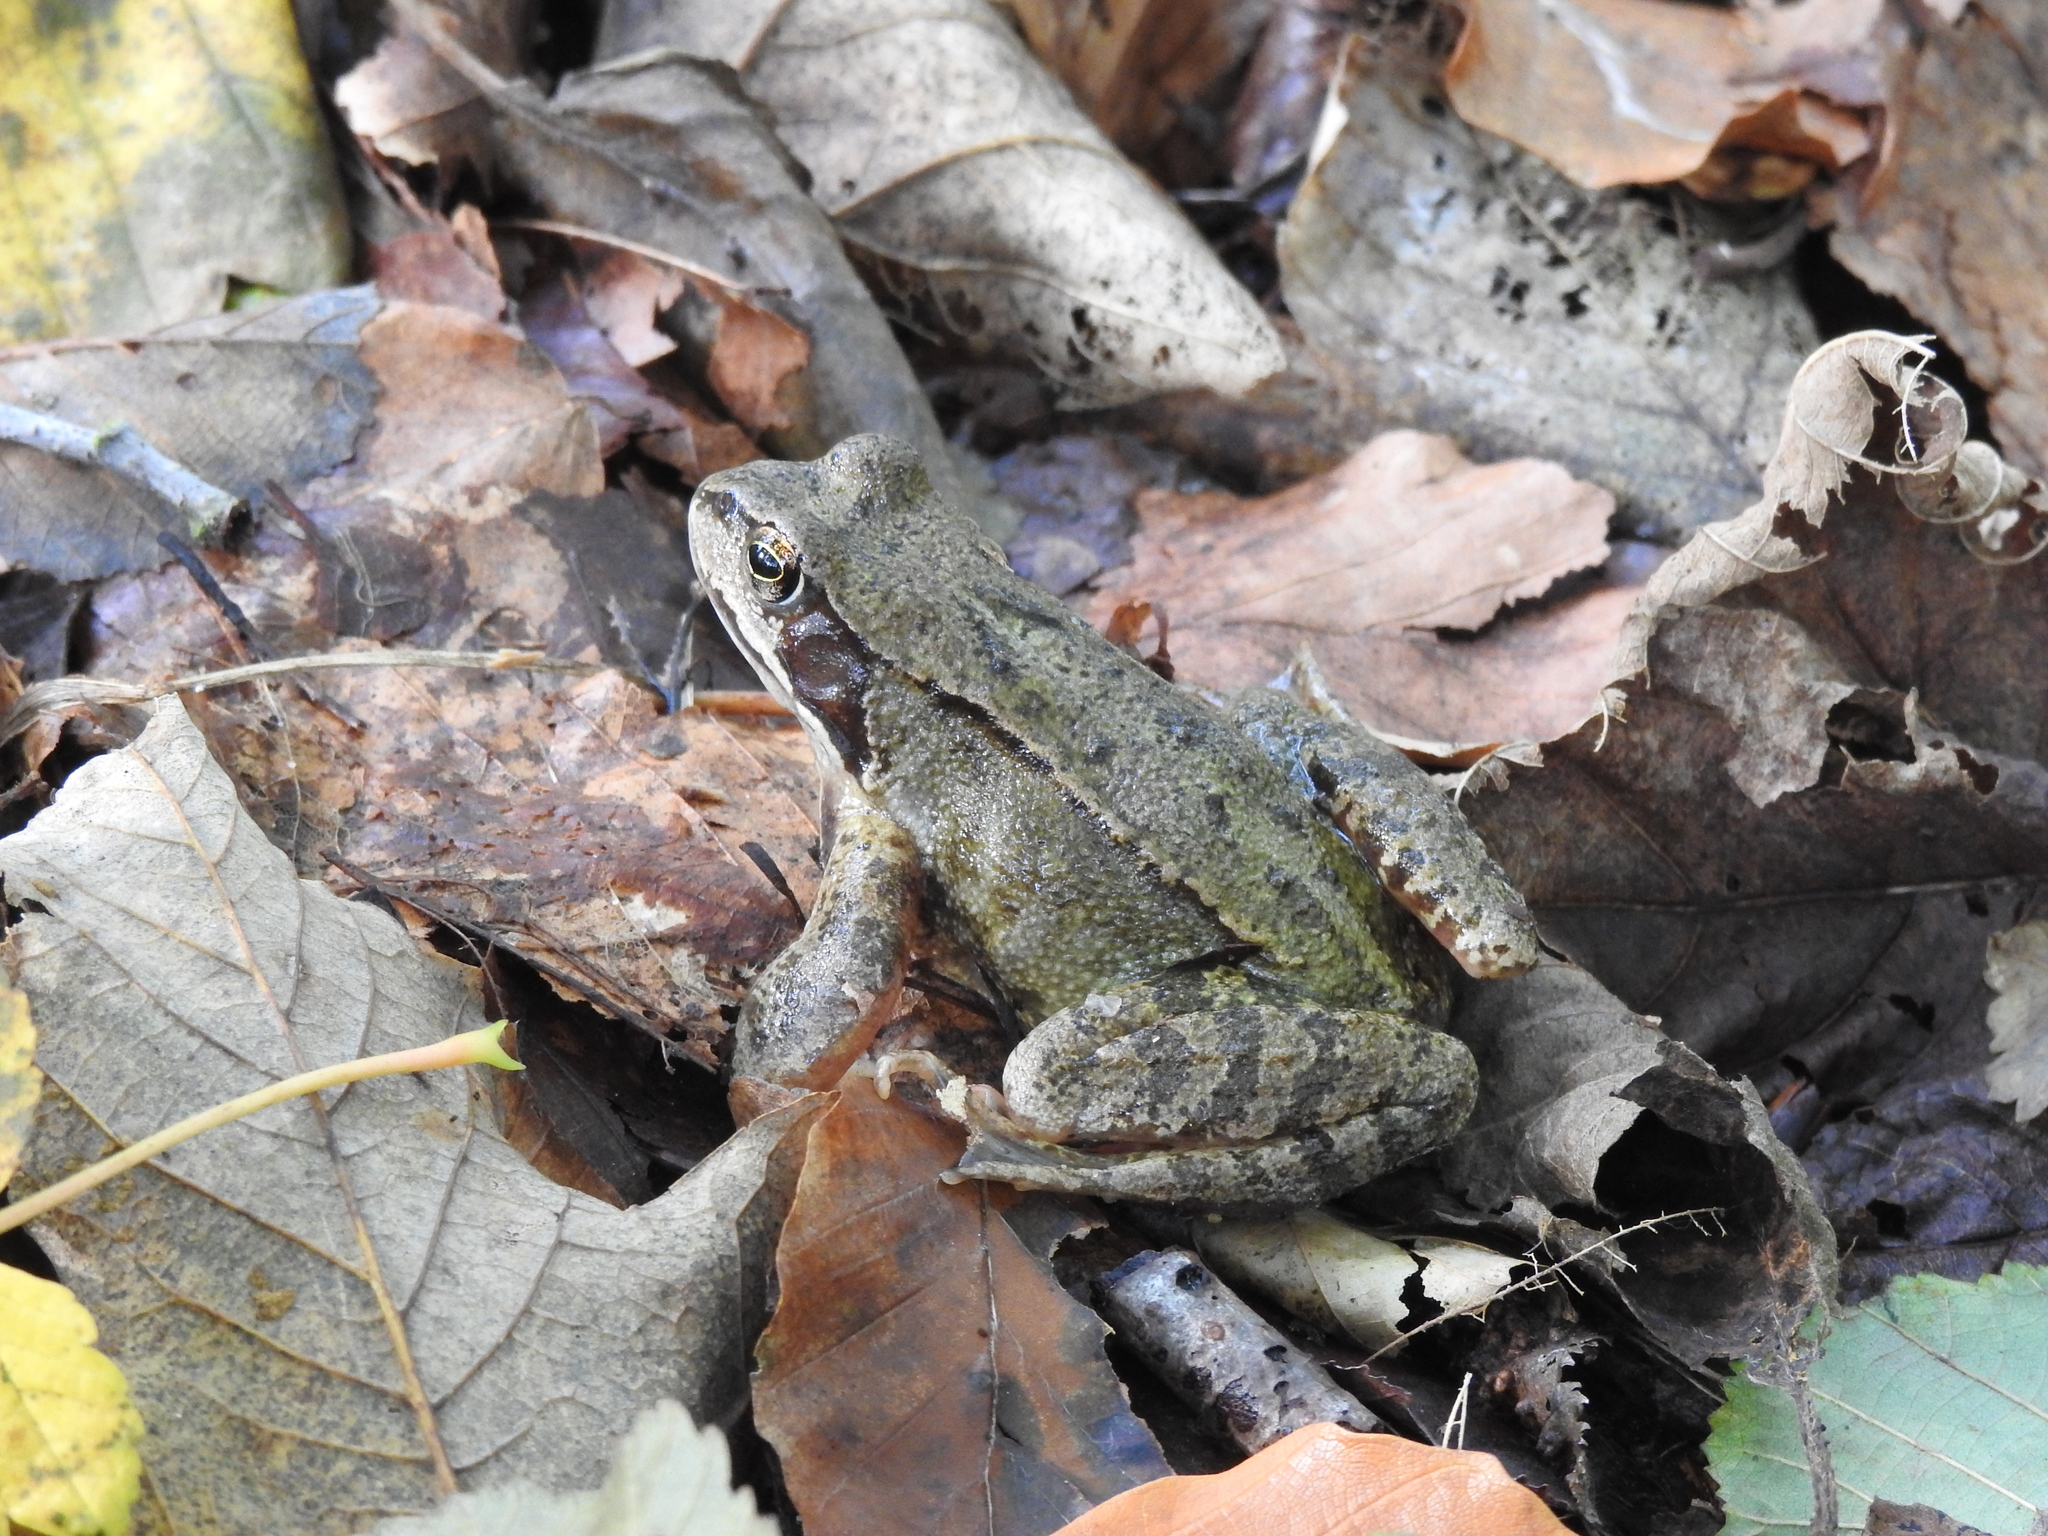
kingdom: Animalia
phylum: Chordata
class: Amphibia
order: Anura
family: Ranidae
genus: Rana
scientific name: Rana temporaria
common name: Common frog
